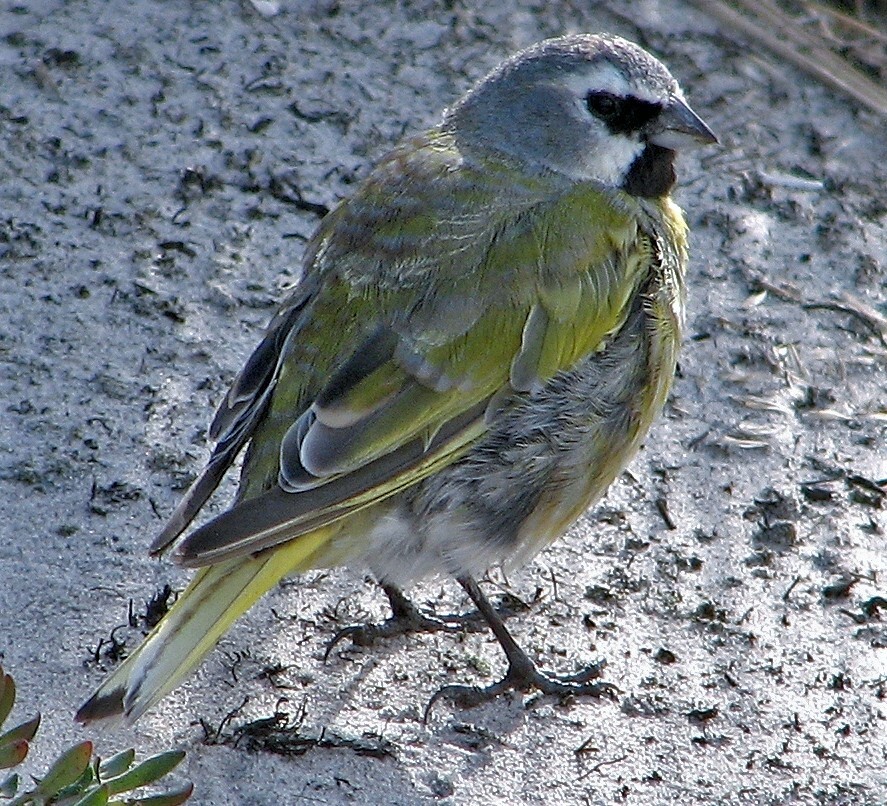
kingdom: Animalia
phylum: Chordata
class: Aves
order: Passeriformes
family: Thraupidae
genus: Melanodera
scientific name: Melanodera melanodera
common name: White-bridled finch
